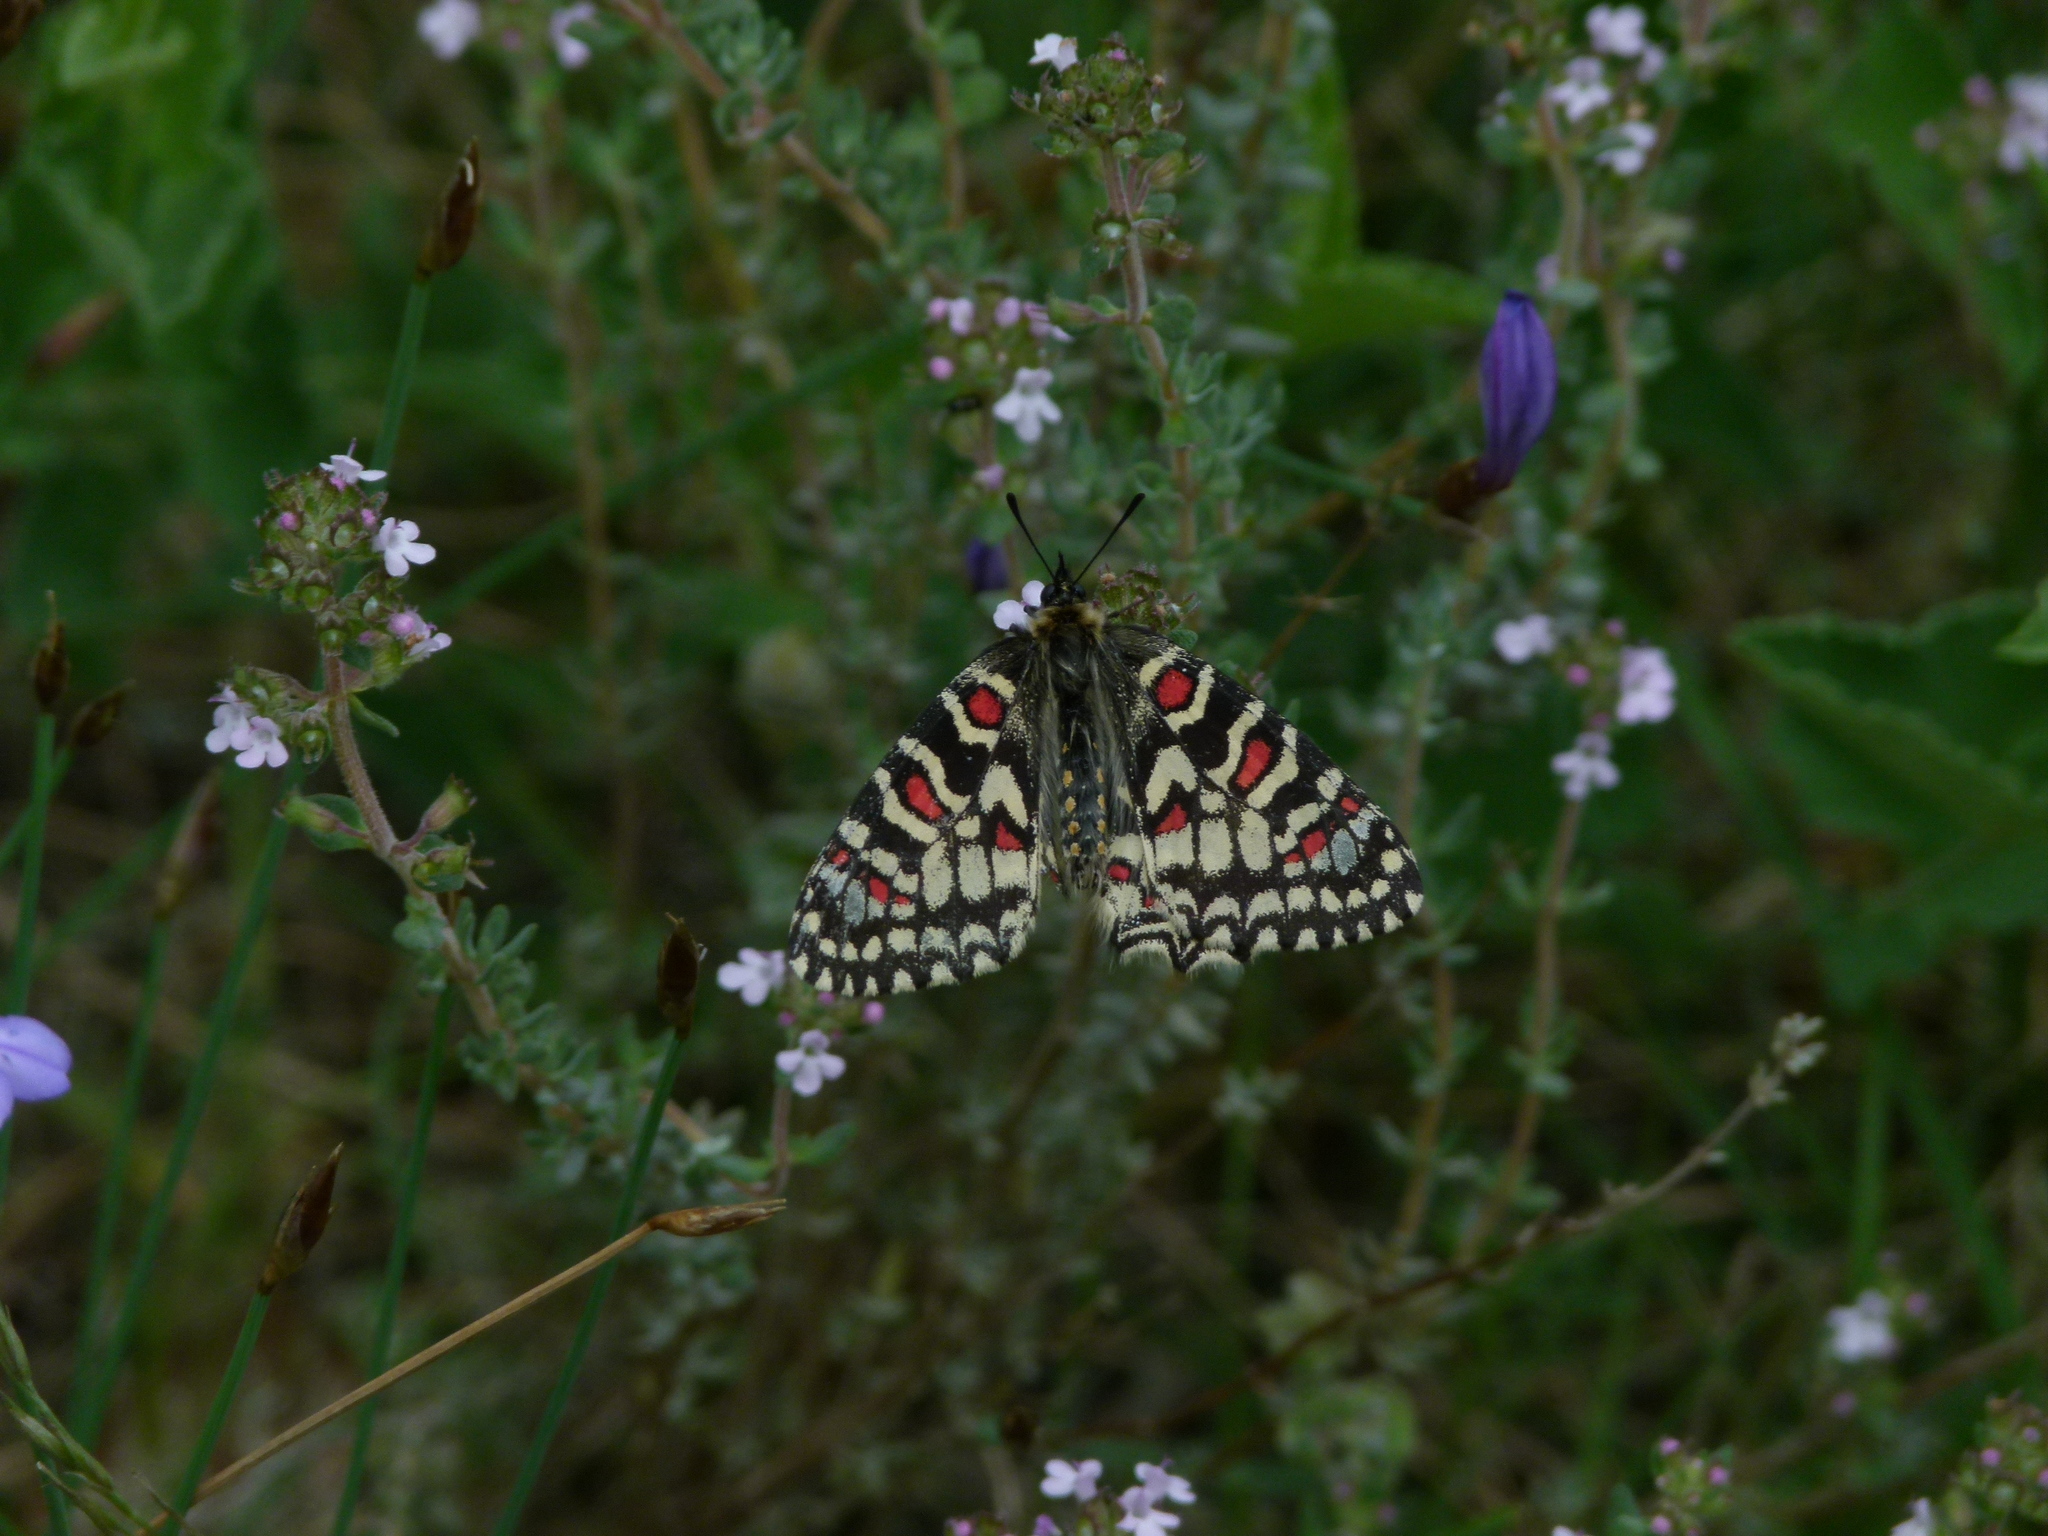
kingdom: Animalia
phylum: Arthropoda
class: Insecta
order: Lepidoptera
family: Papilionidae
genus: Zerynthia
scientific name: Zerynthia rumina
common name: Spanish festoon
